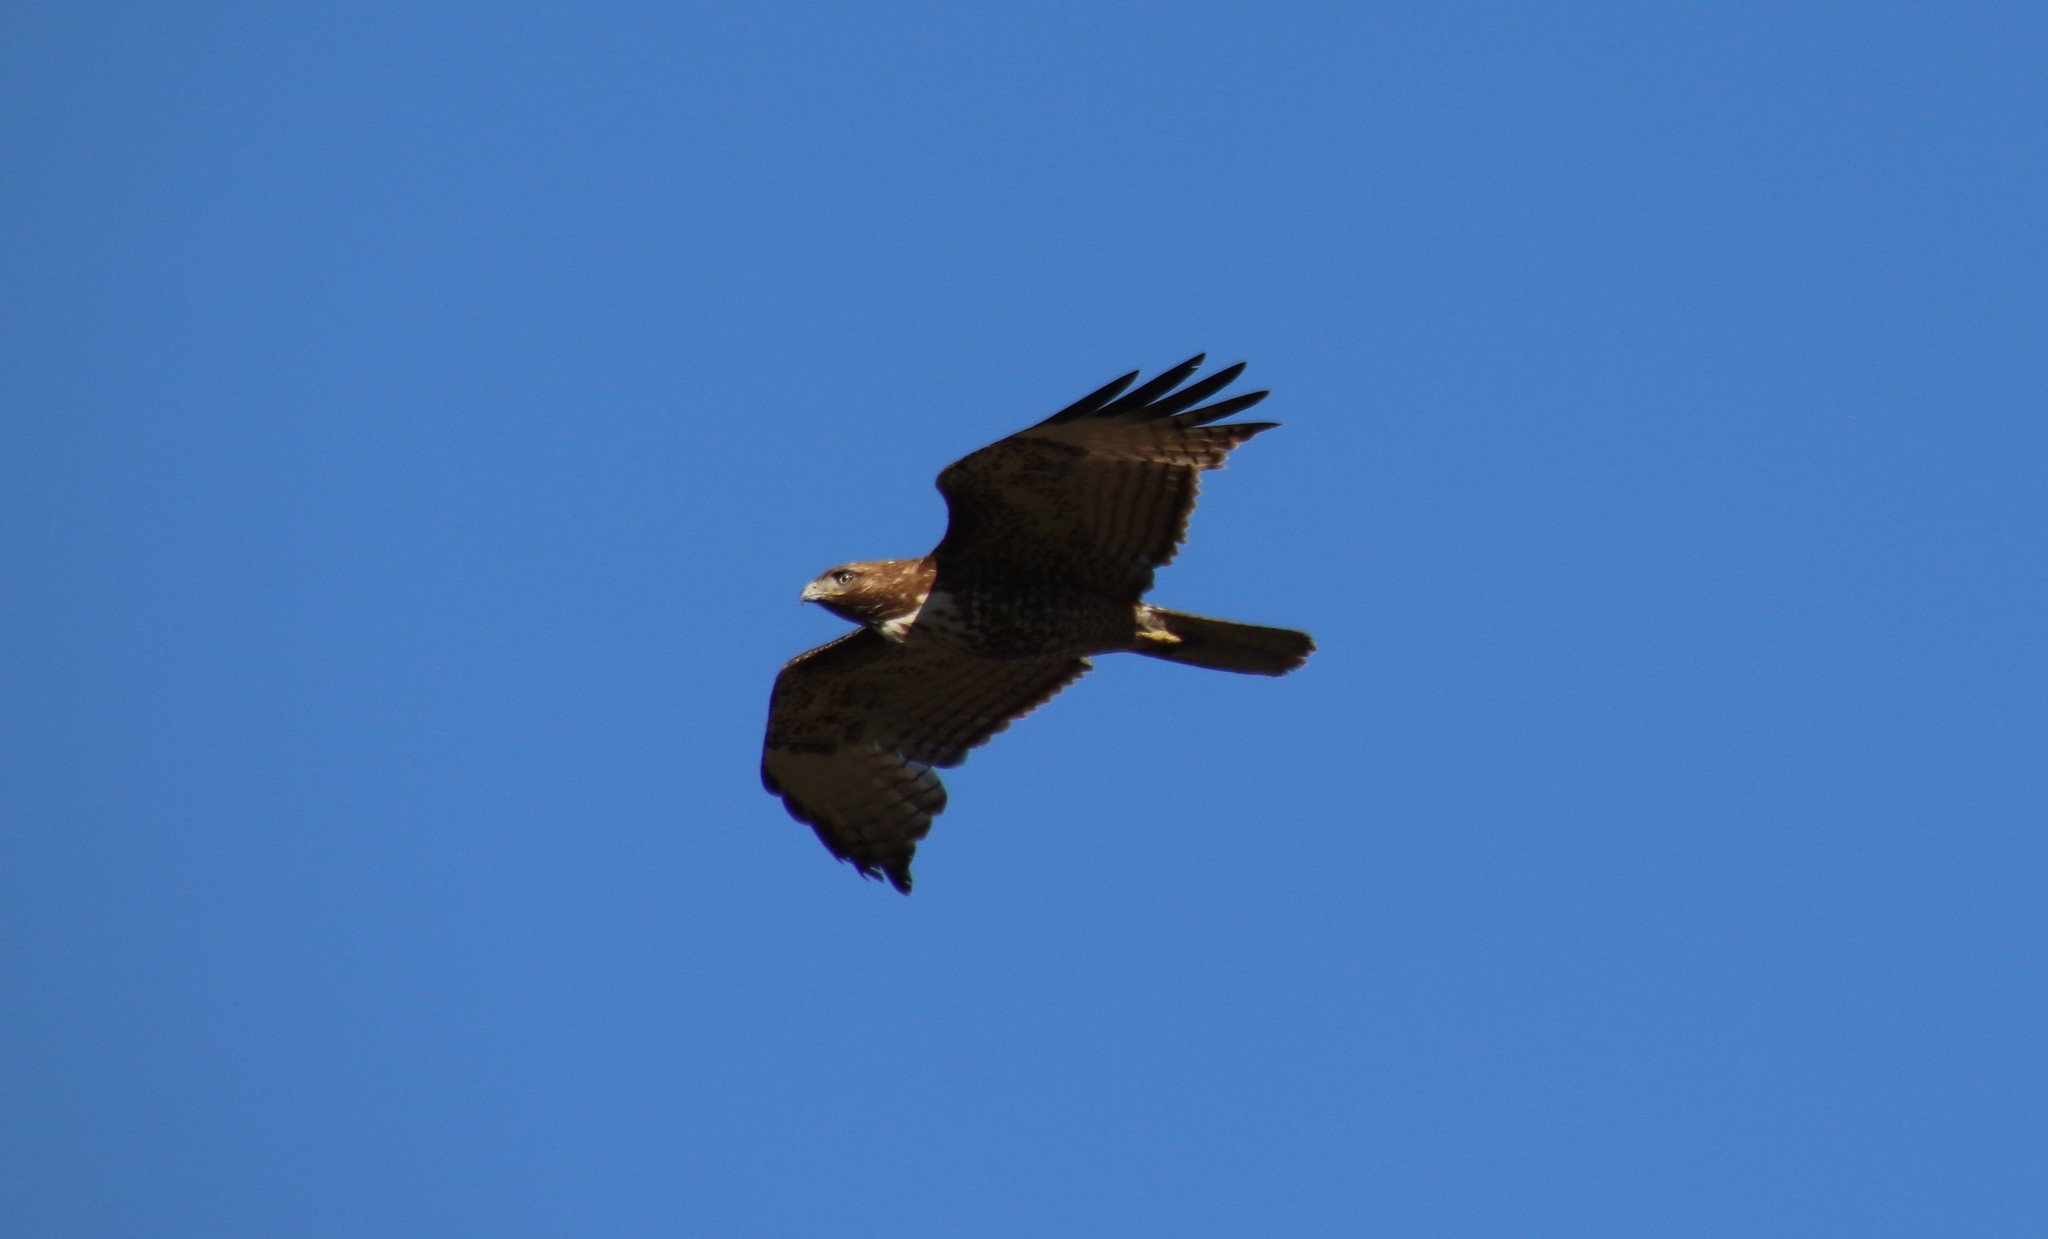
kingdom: Animalia
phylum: Chordata
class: Aves
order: Accipitriformes
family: Accipitridae
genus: Buteo
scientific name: Buteo jamaicensis
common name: Red-tailed hawk
